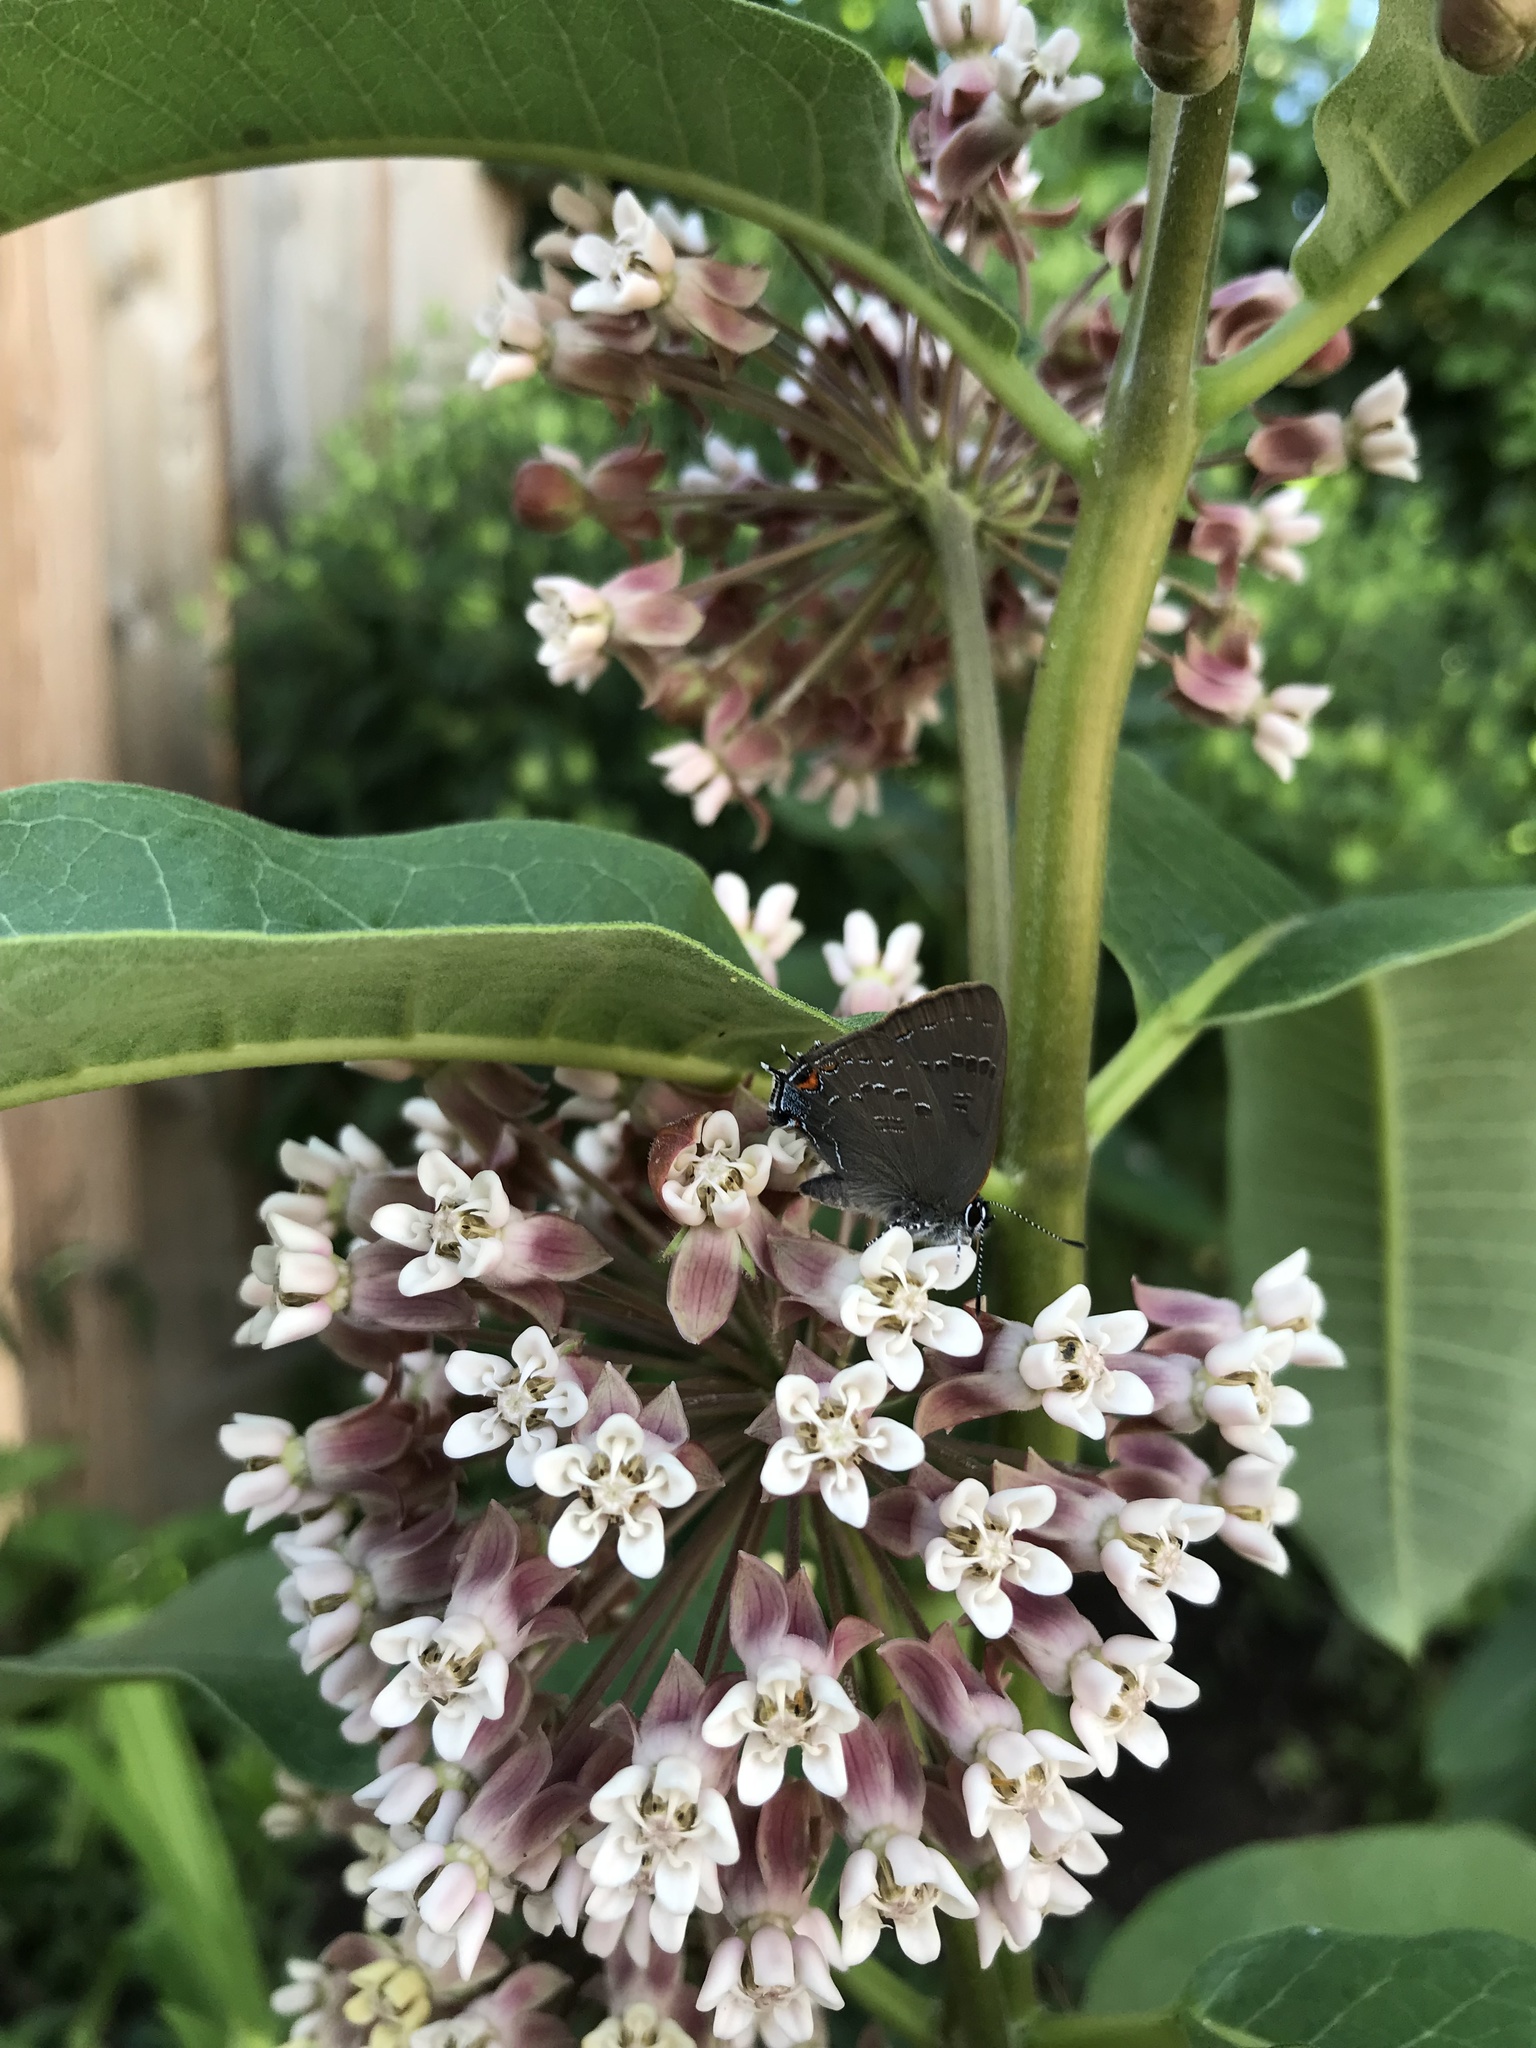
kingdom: Animalia
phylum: Arthropoda
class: Insecta
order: Lepidoptera
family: Lycaenidae
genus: Satyrium
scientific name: Satyrium calanus
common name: Banded hairstreak
